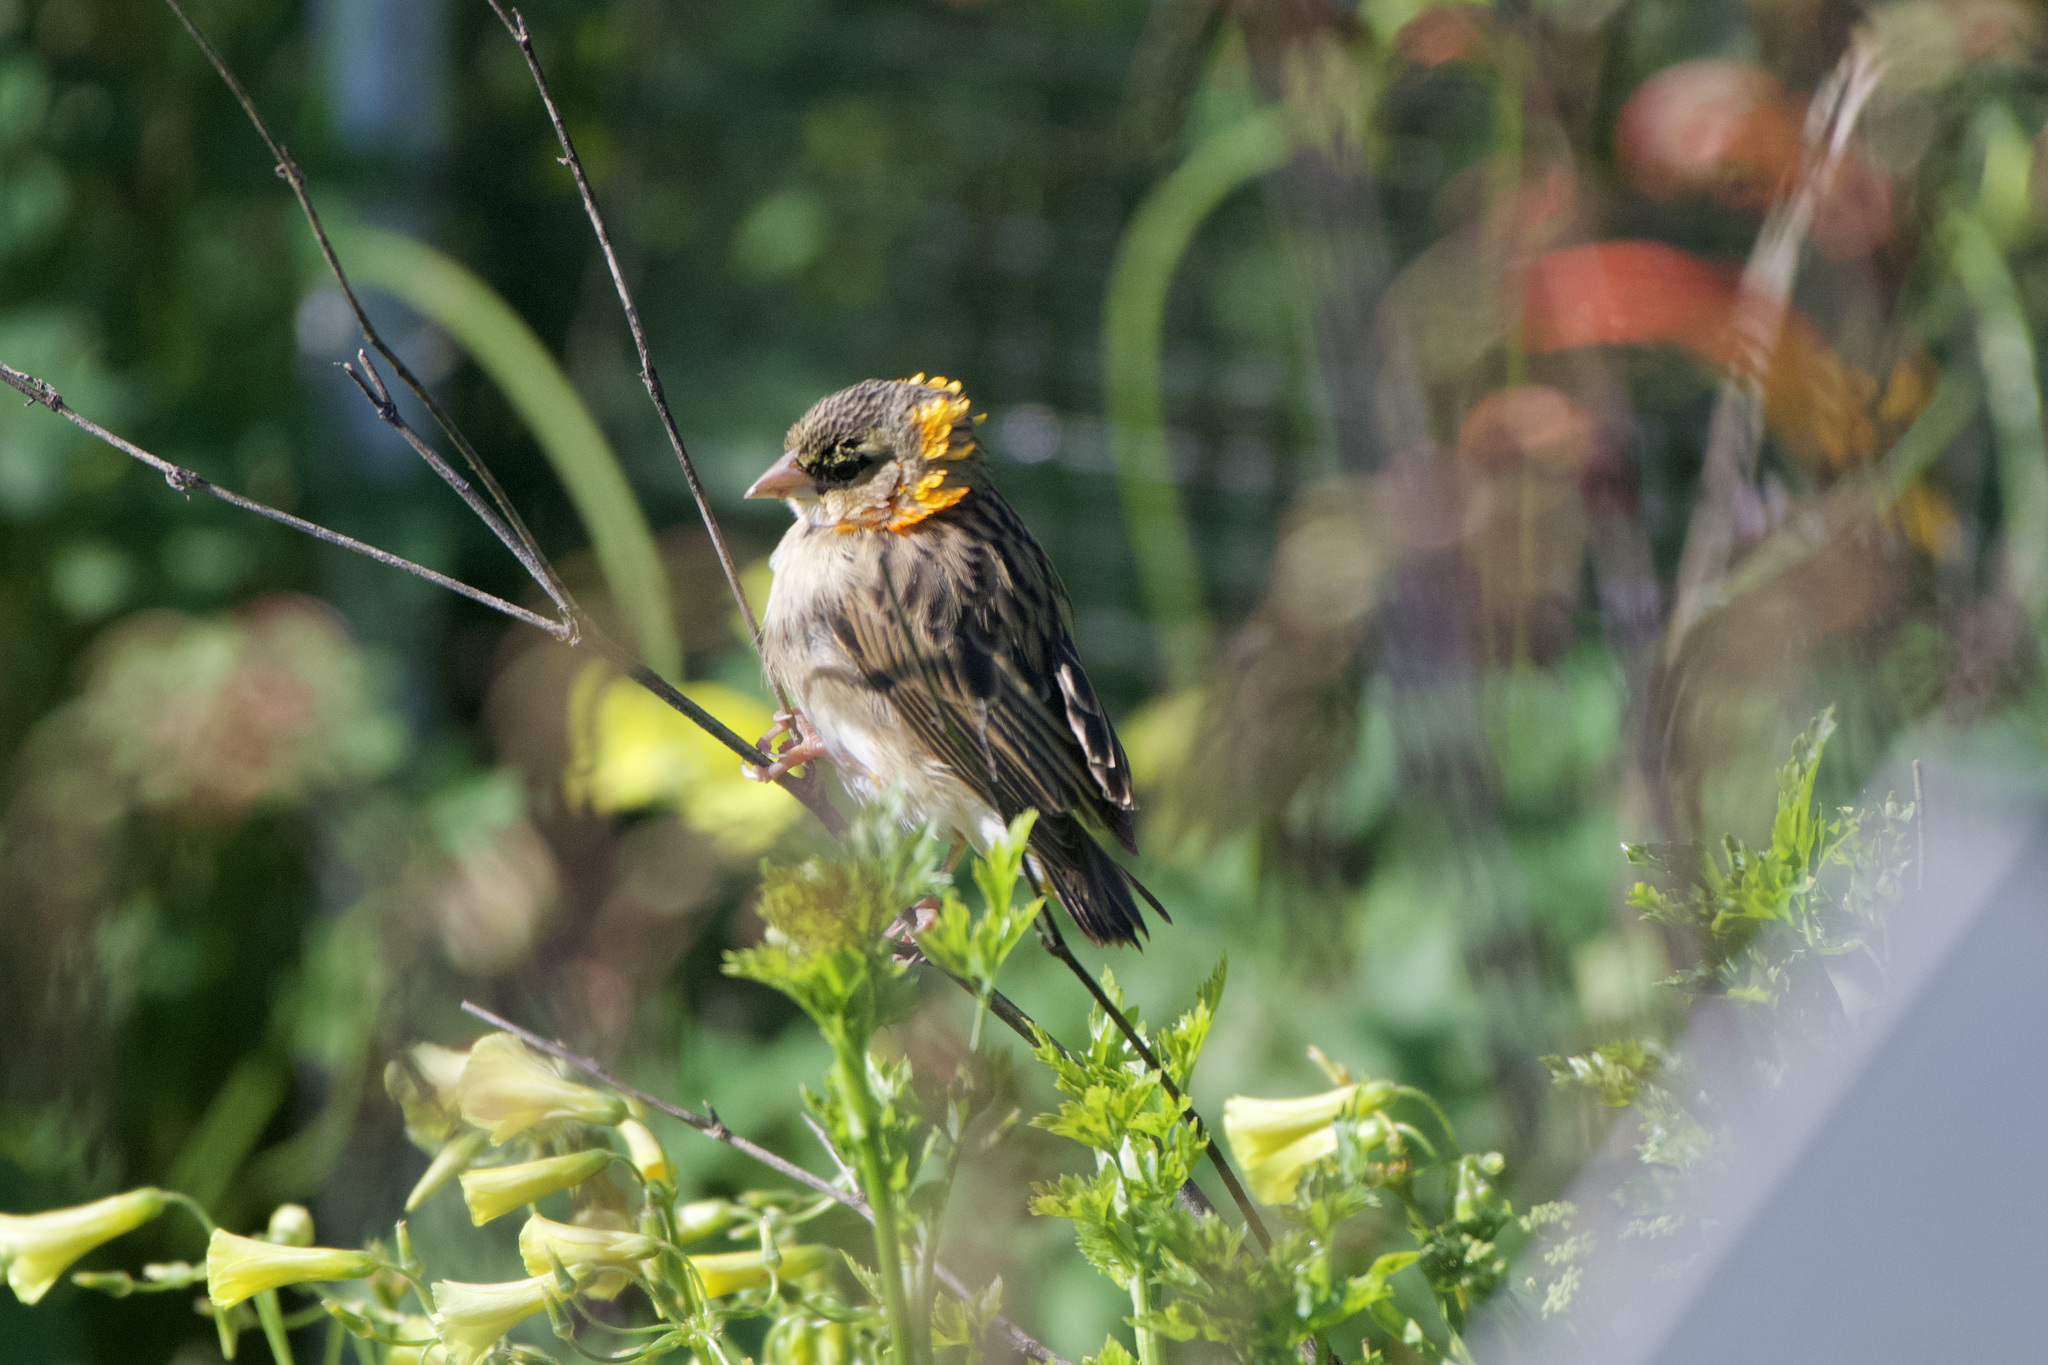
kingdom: Animalia
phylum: Chordata
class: Aves
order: Passeriformes
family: Ploceidae
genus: Euplectes
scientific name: Euplectes franciscanus
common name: Northern red bishop
